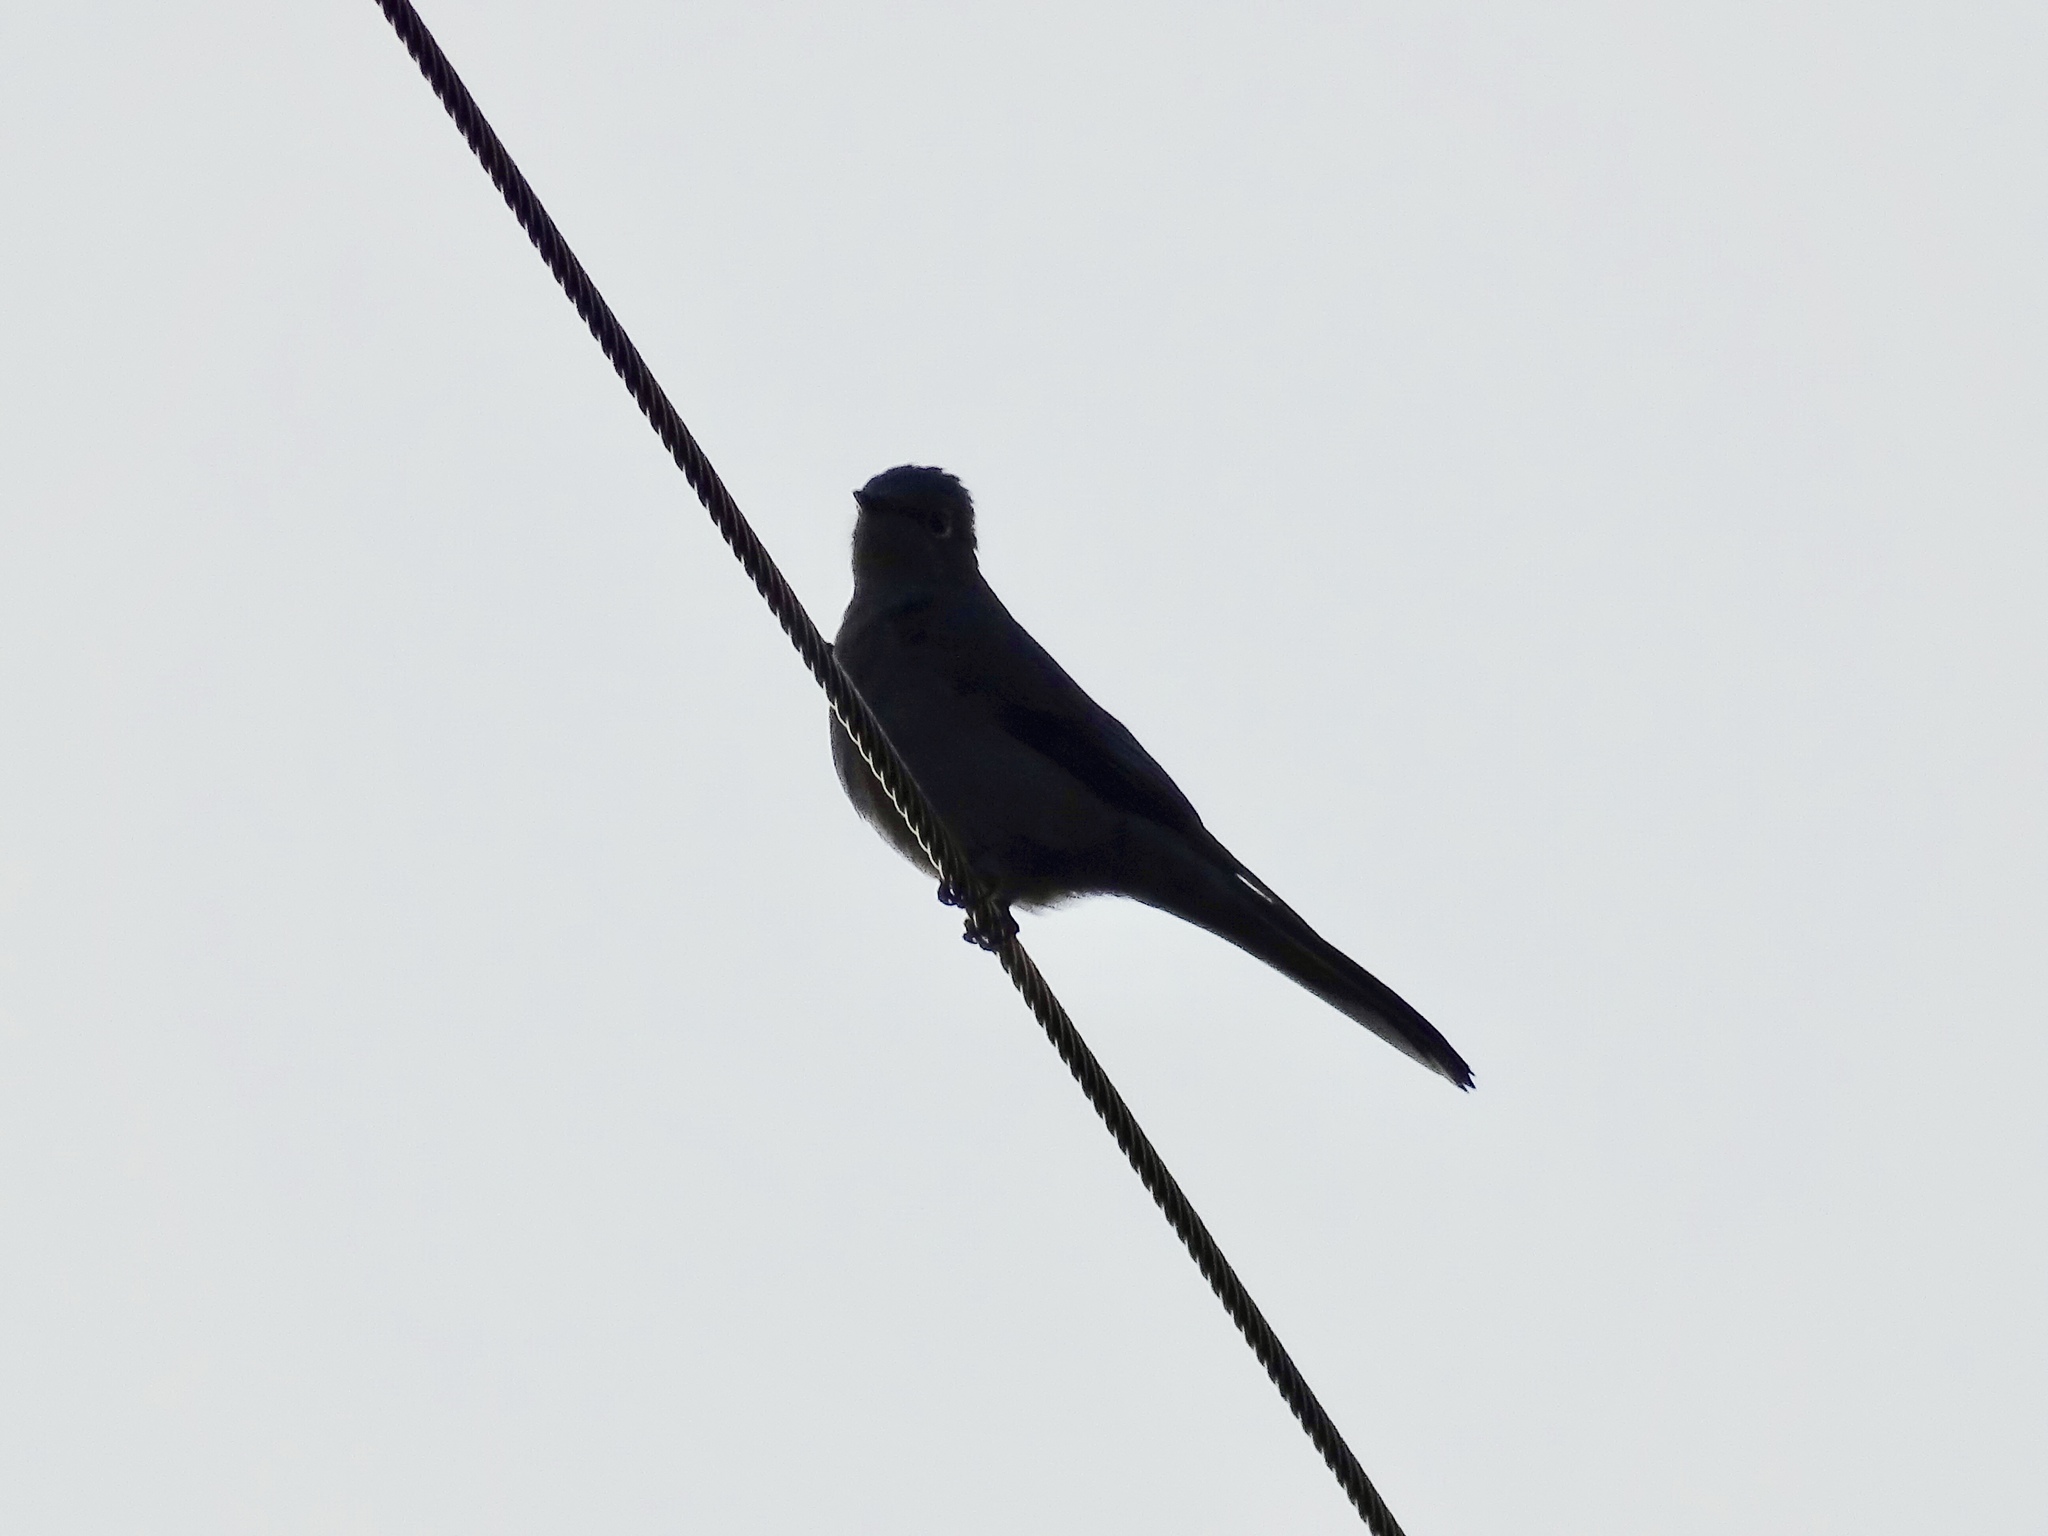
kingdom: Animalia
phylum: Chordata
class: Aves
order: Passeriformes
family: Turdidae
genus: Myadestes
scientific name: Myadestes townsendi
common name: Townsend's solitaire
